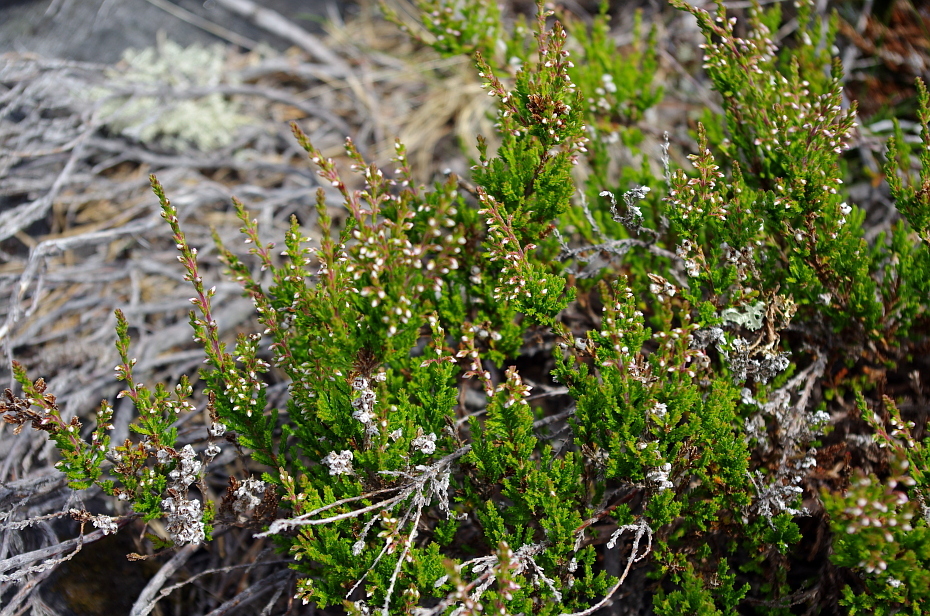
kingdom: Plantae
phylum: Tracheophyta
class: Magnoliopsida
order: Ericales
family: Ericaceae
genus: Calluna
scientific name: Calluna vulgaris
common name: Heather
